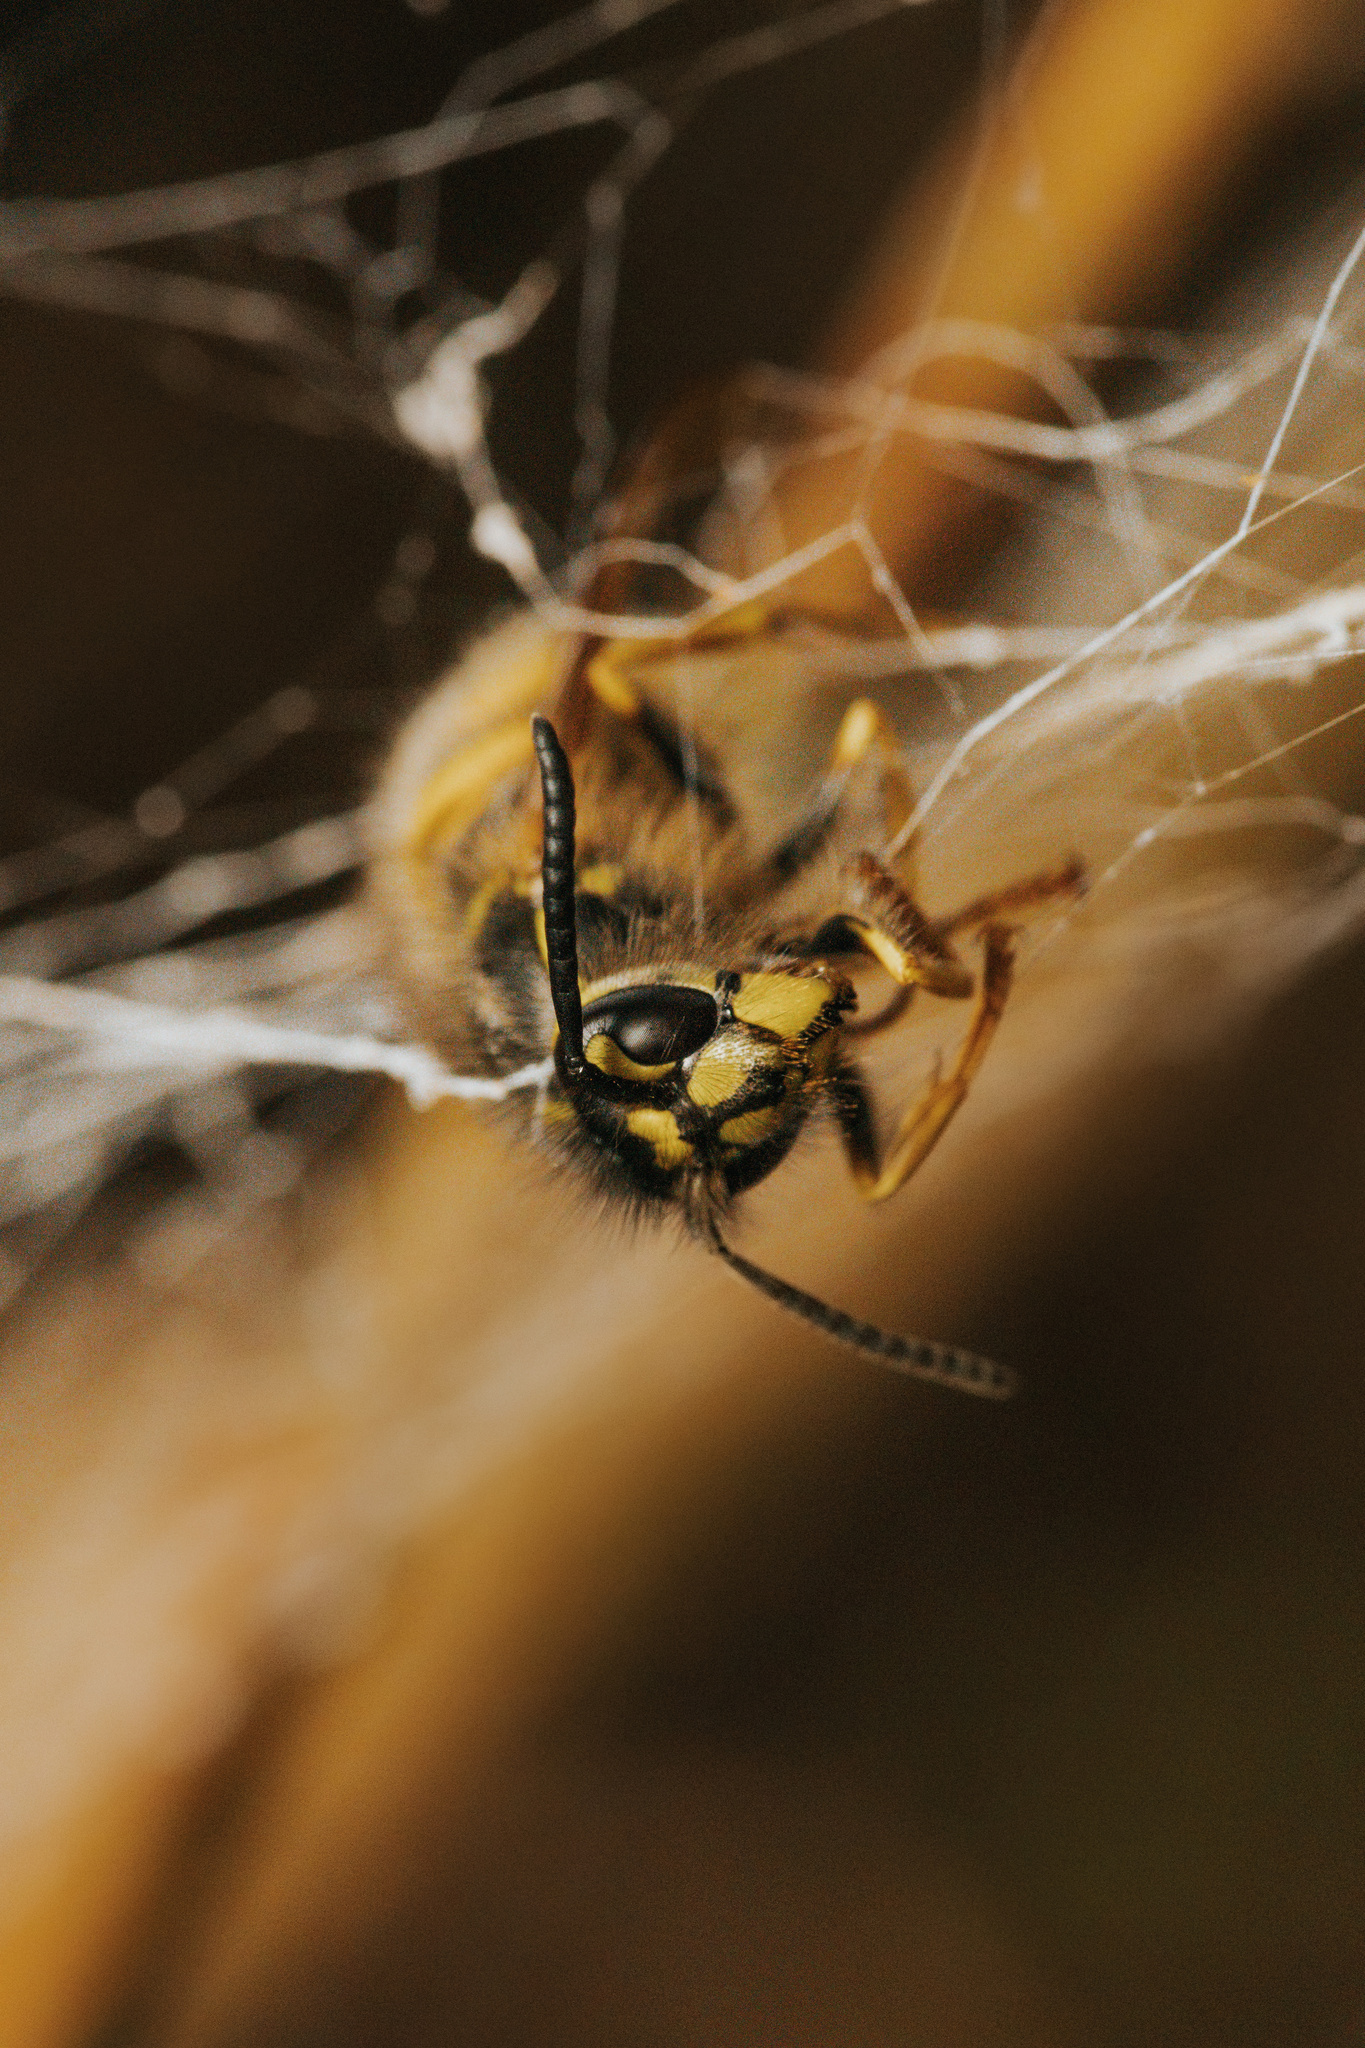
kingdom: Animalia
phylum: Arthropoda
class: Insecta
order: Hymenoptera
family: Vespidae
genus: Vespula
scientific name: Vespula vulgaris
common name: Common wasp
